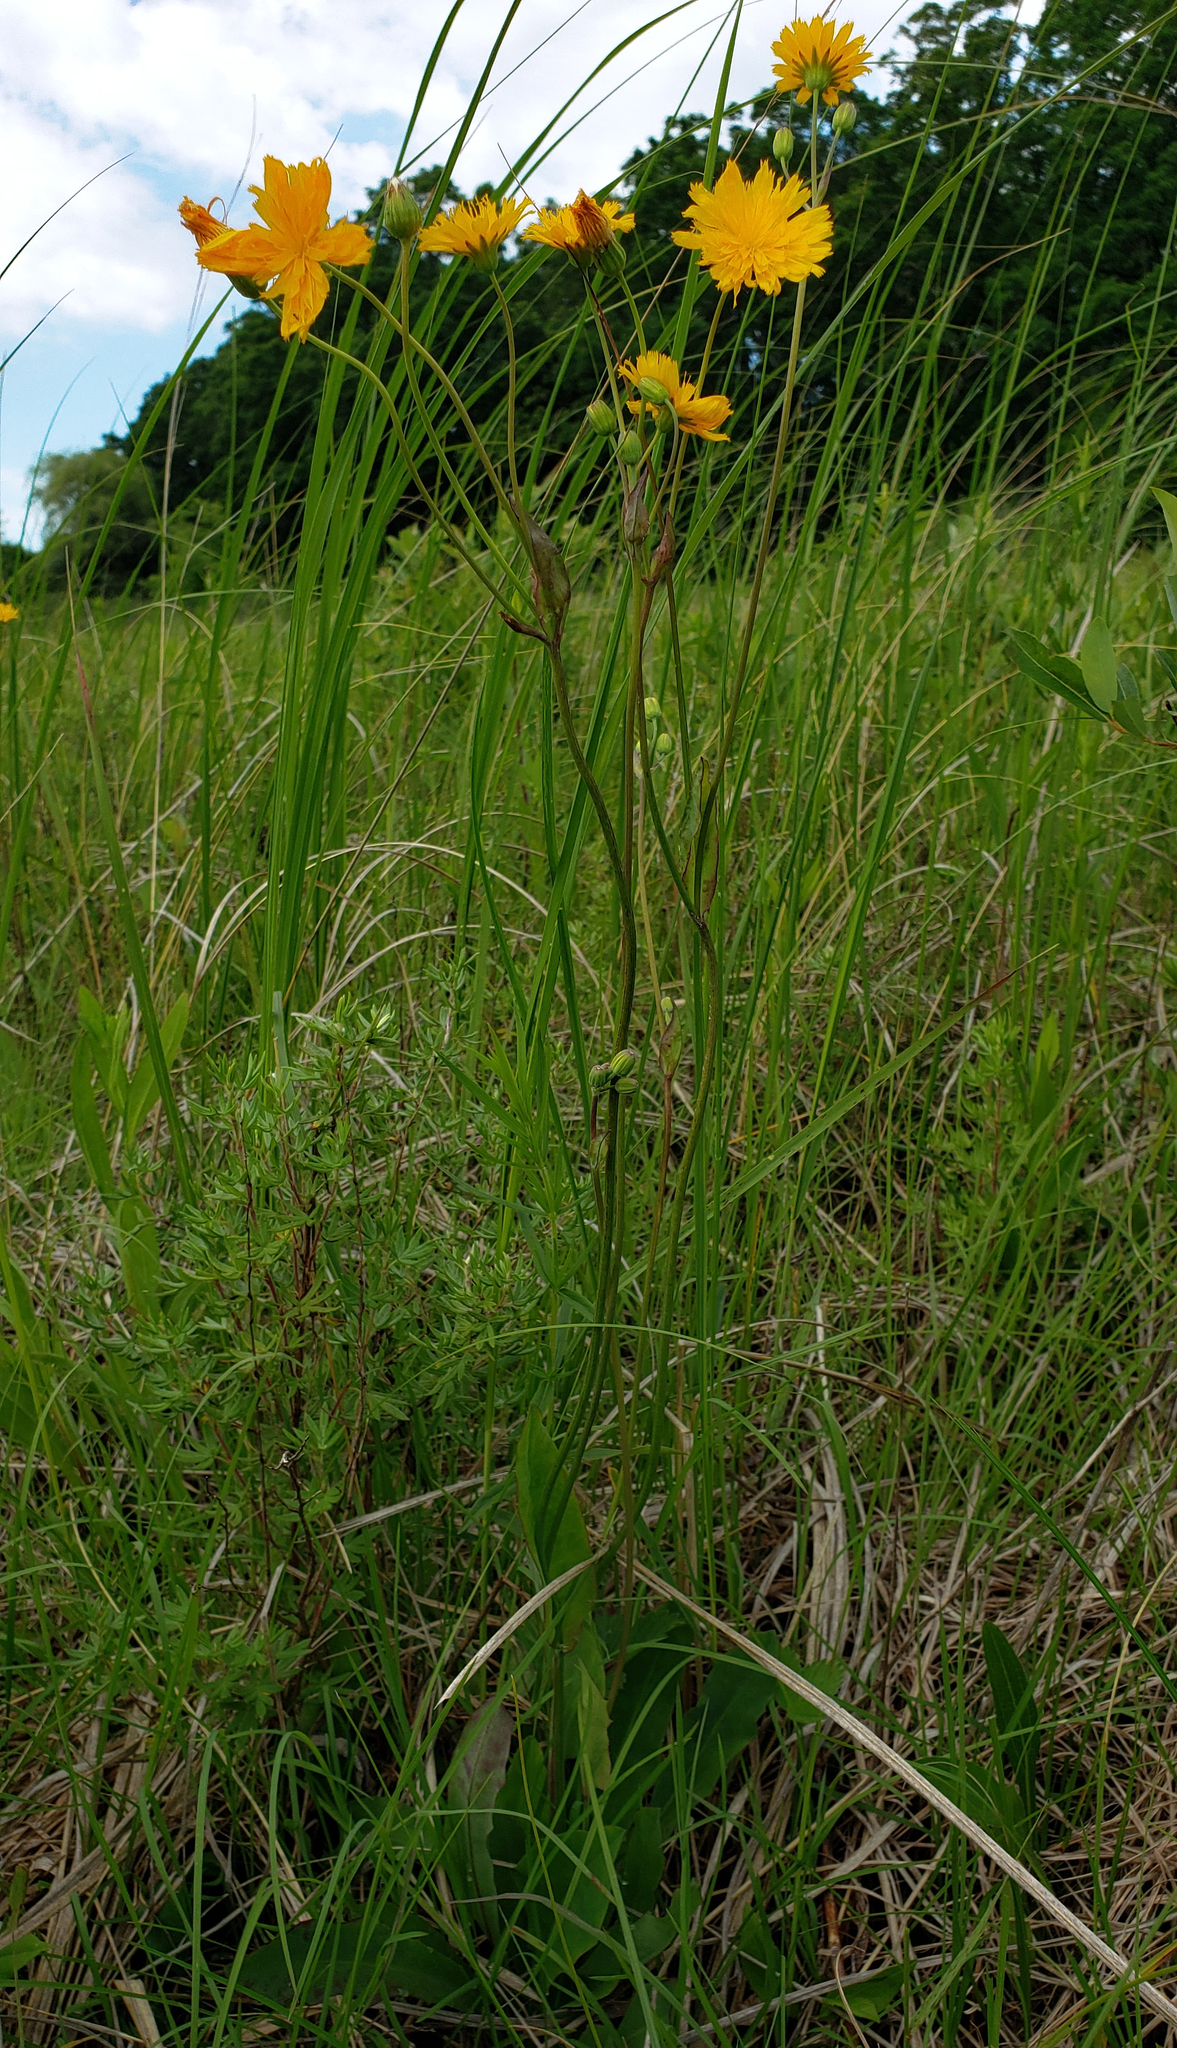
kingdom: Plantae
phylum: Tracheophyta
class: Magnoliopsida
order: Asterales
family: Asteraceae
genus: Krigia
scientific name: Krigia biflora
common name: Orange dwarf-dandelion
